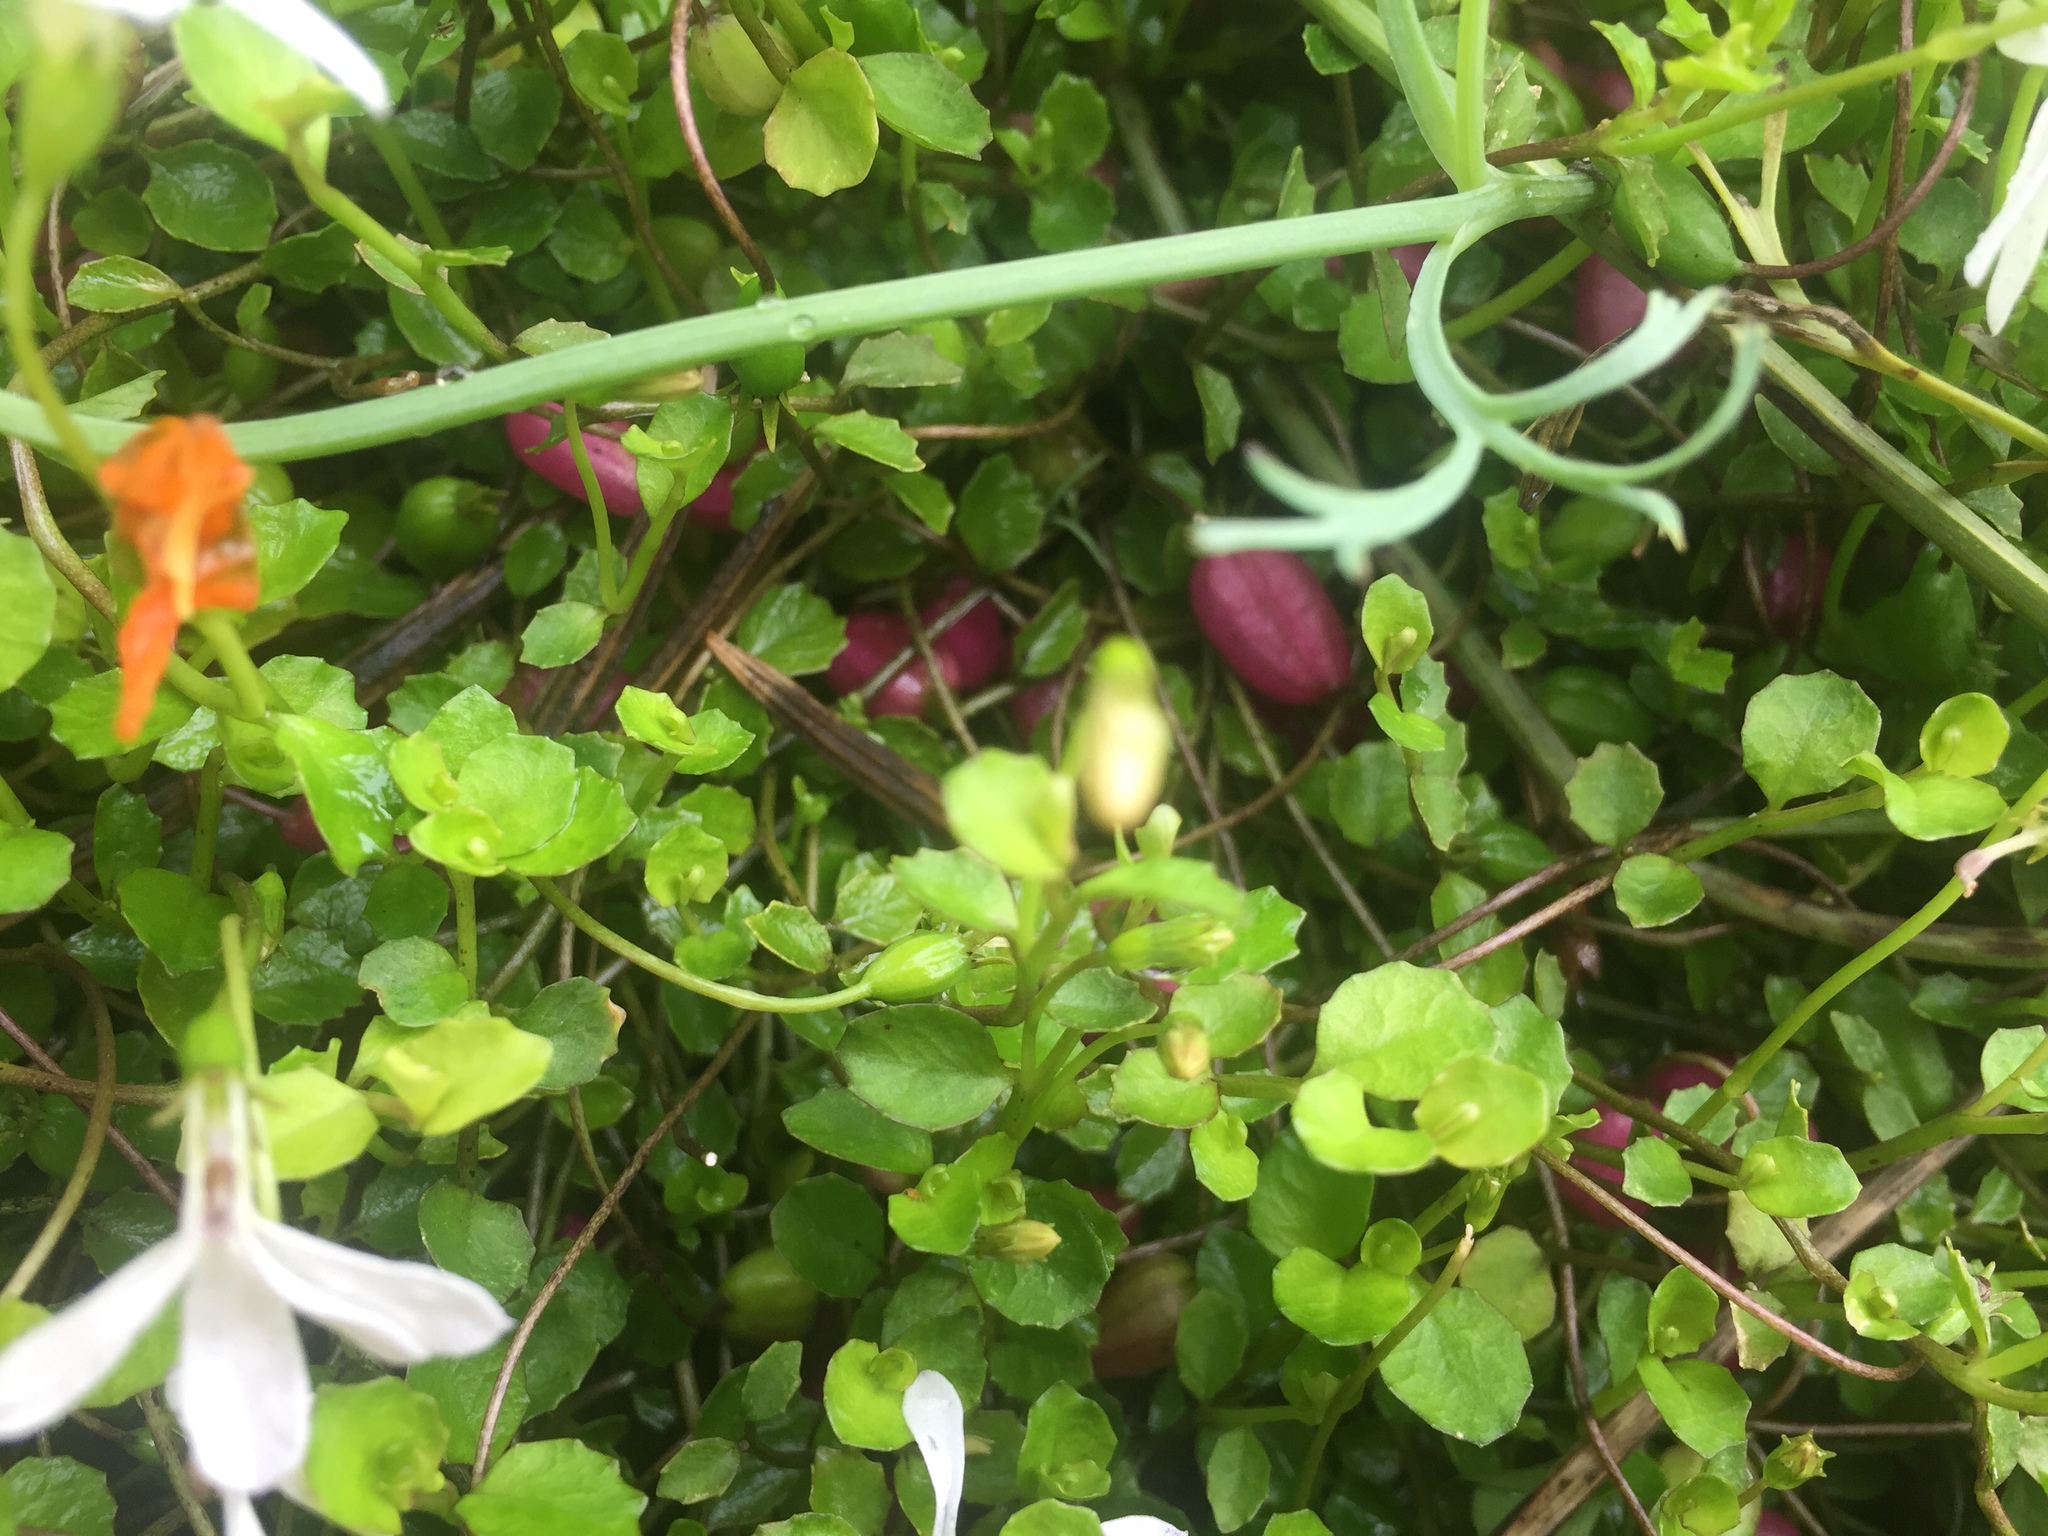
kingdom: Plantae
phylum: Tracheophyta
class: Magnoliopsida
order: Asterales
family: Campanulaceae
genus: Lobelia
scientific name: Lobelia angulata
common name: Lawn lobelia
